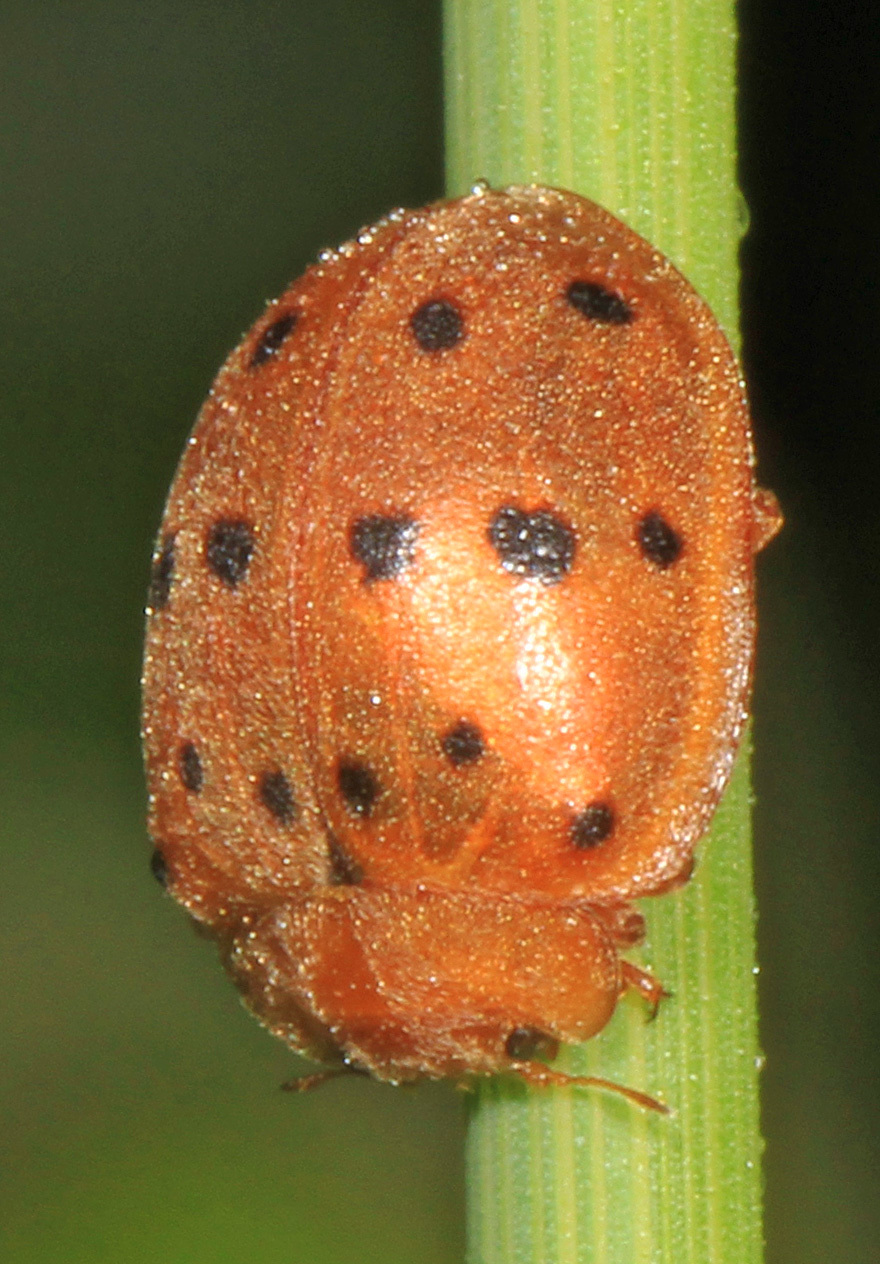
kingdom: Animalia
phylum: Arthropoda
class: Insecta
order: Coleoptera
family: Coccinellidae
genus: Epilachna
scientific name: Epilachna varivestis
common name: Ladybird beetle
